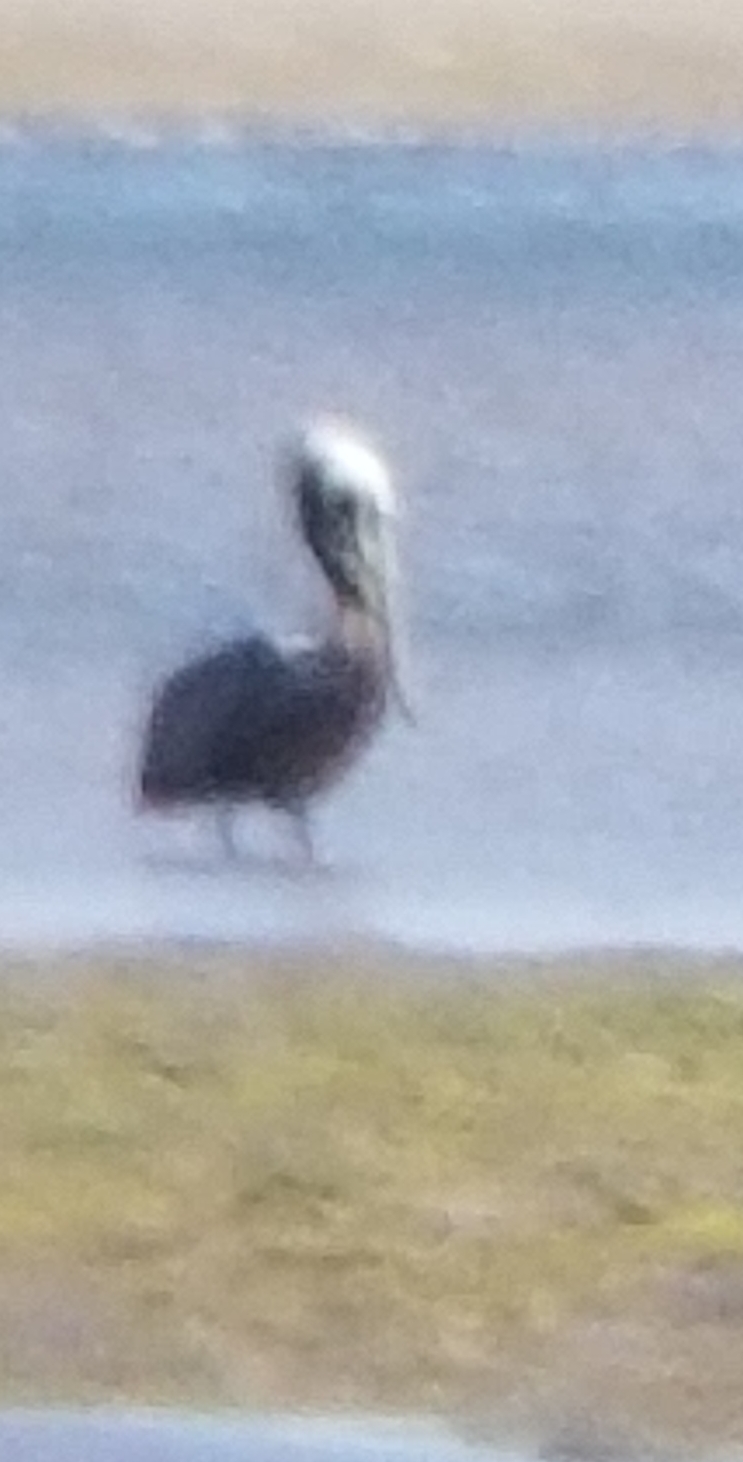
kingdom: Animalia
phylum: Chordata
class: Aves
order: Pelecaniformes
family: Pelecanidae
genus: Pelecanus
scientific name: Pelecanus occidentalis
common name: Brown pelican
